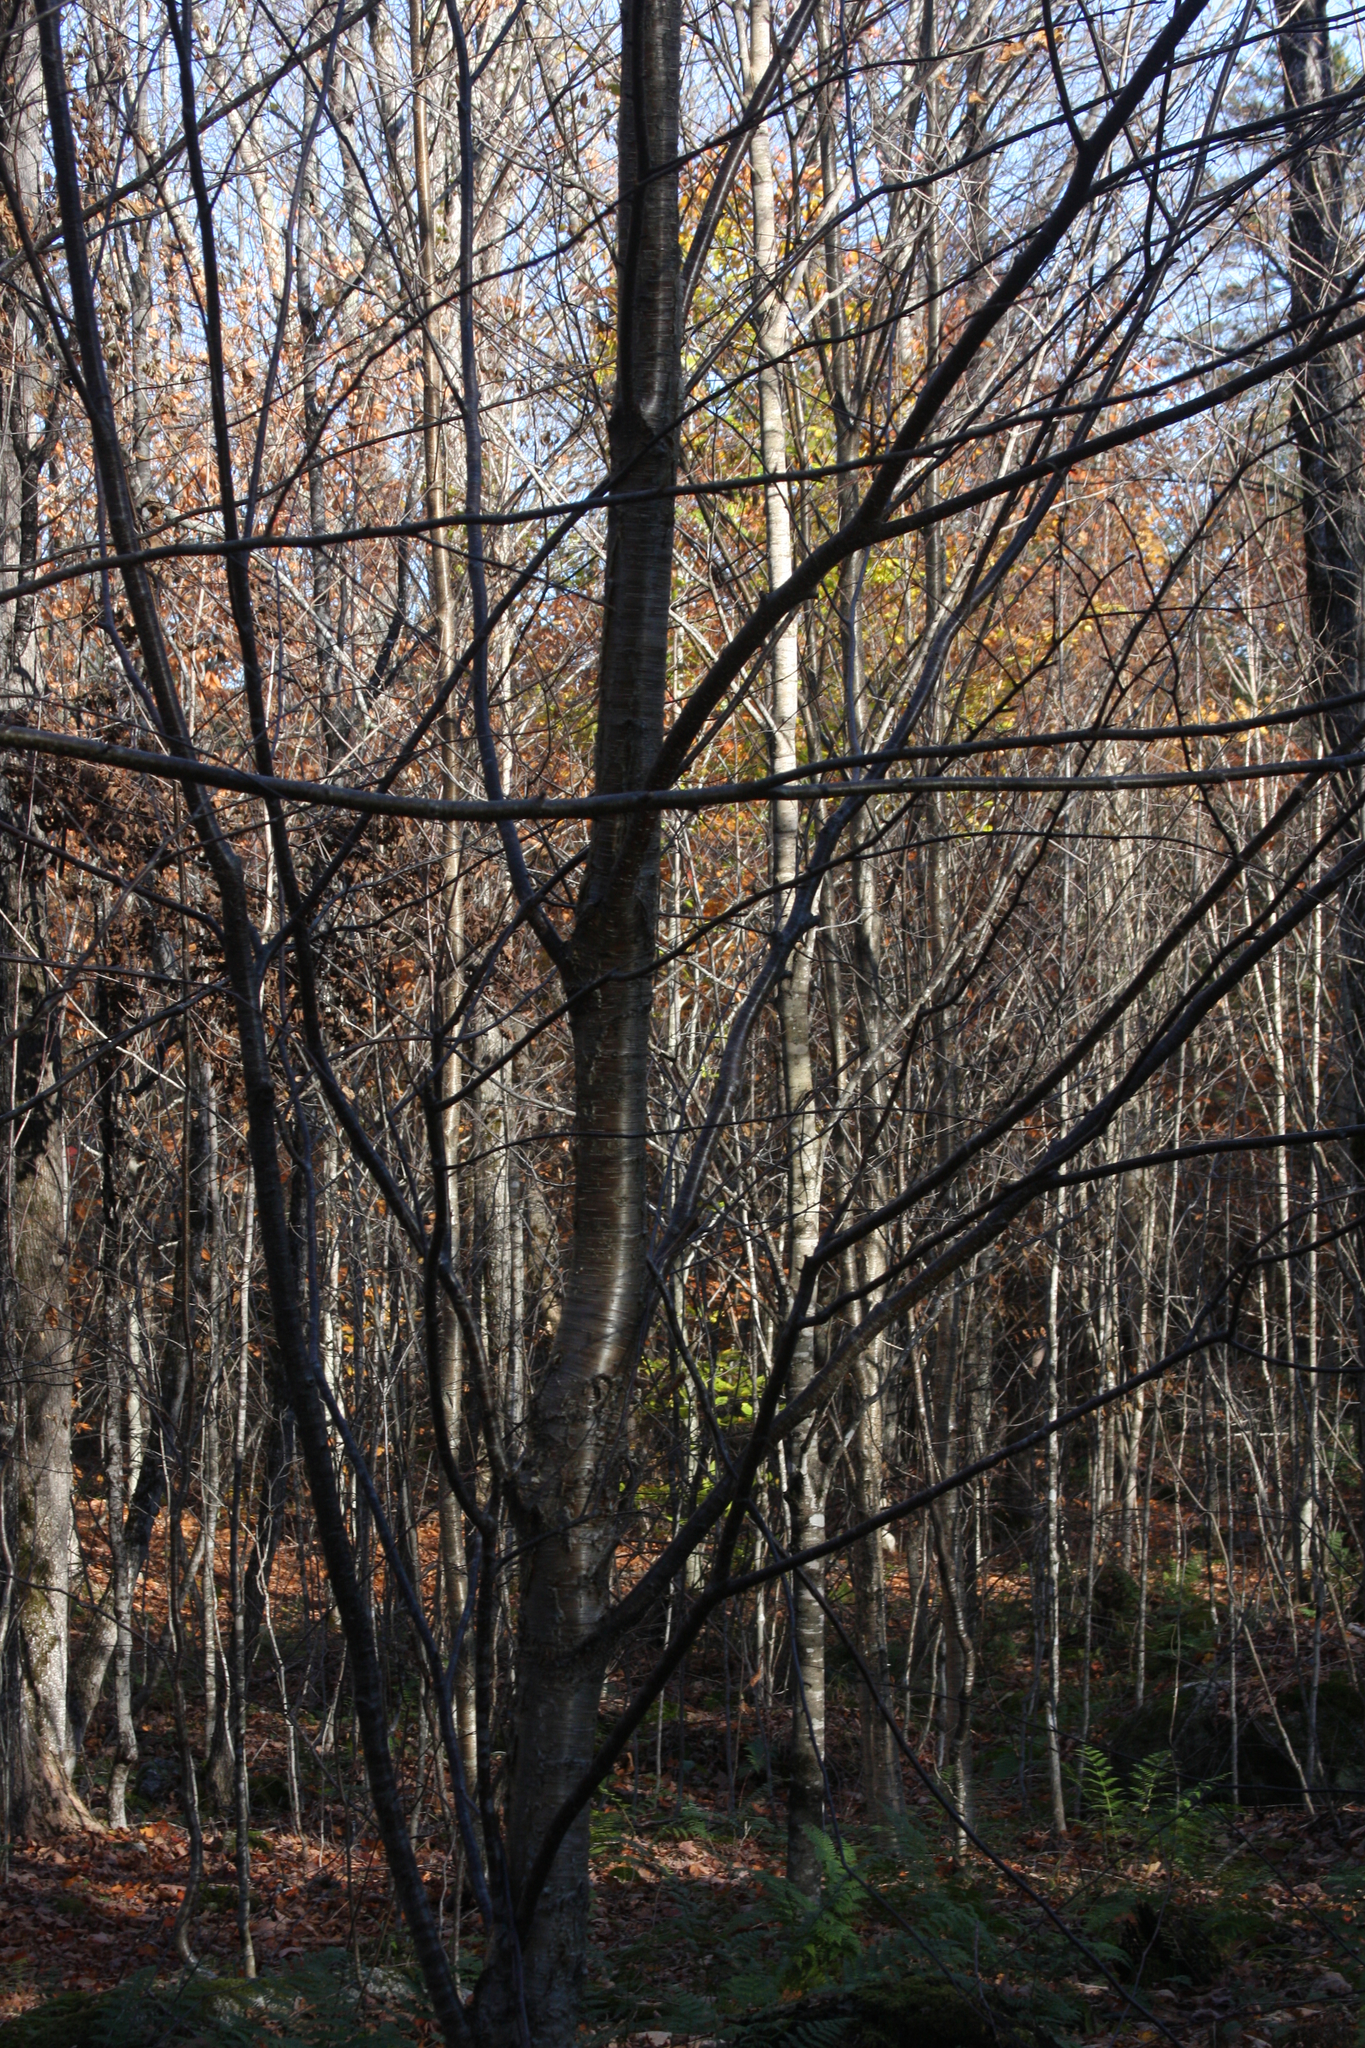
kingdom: Plantae
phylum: Tracheophyta
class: Magnoliopsida
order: Fagales
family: Betulaceae
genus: Betula
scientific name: Betula alleghaniensis
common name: Yellow birch
